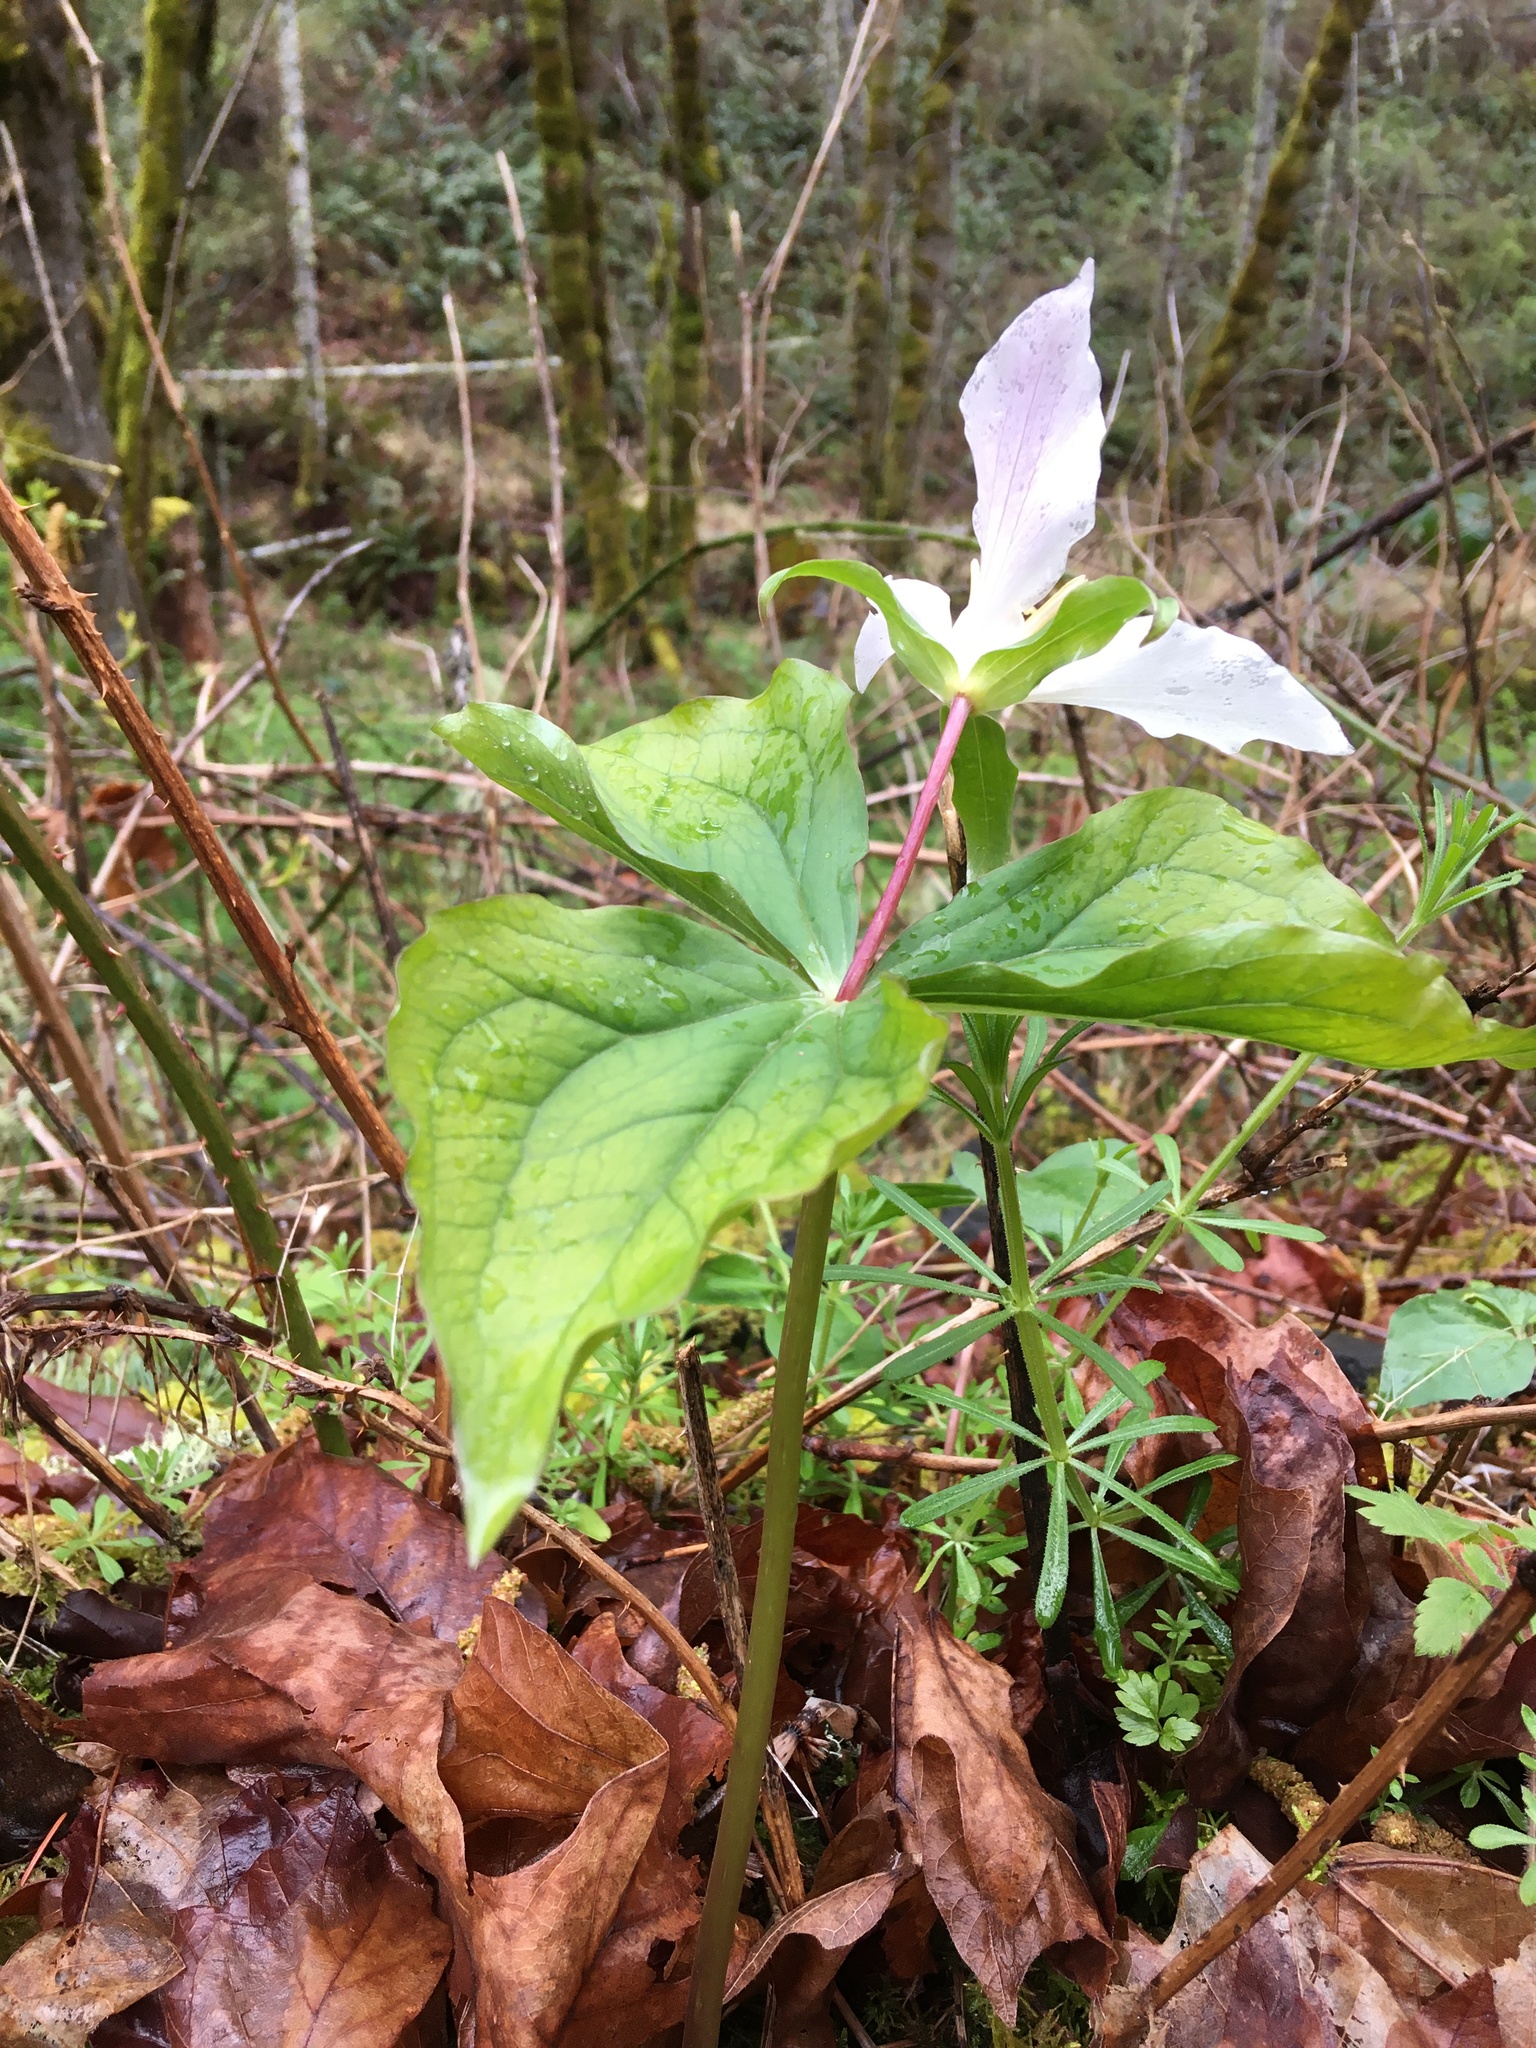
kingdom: Plantae
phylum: Tracheophyta
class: Liliopsida
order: Liliales
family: Melanthiaceae
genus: Trillium
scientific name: Trillium ovatum
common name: Pacific trillium
